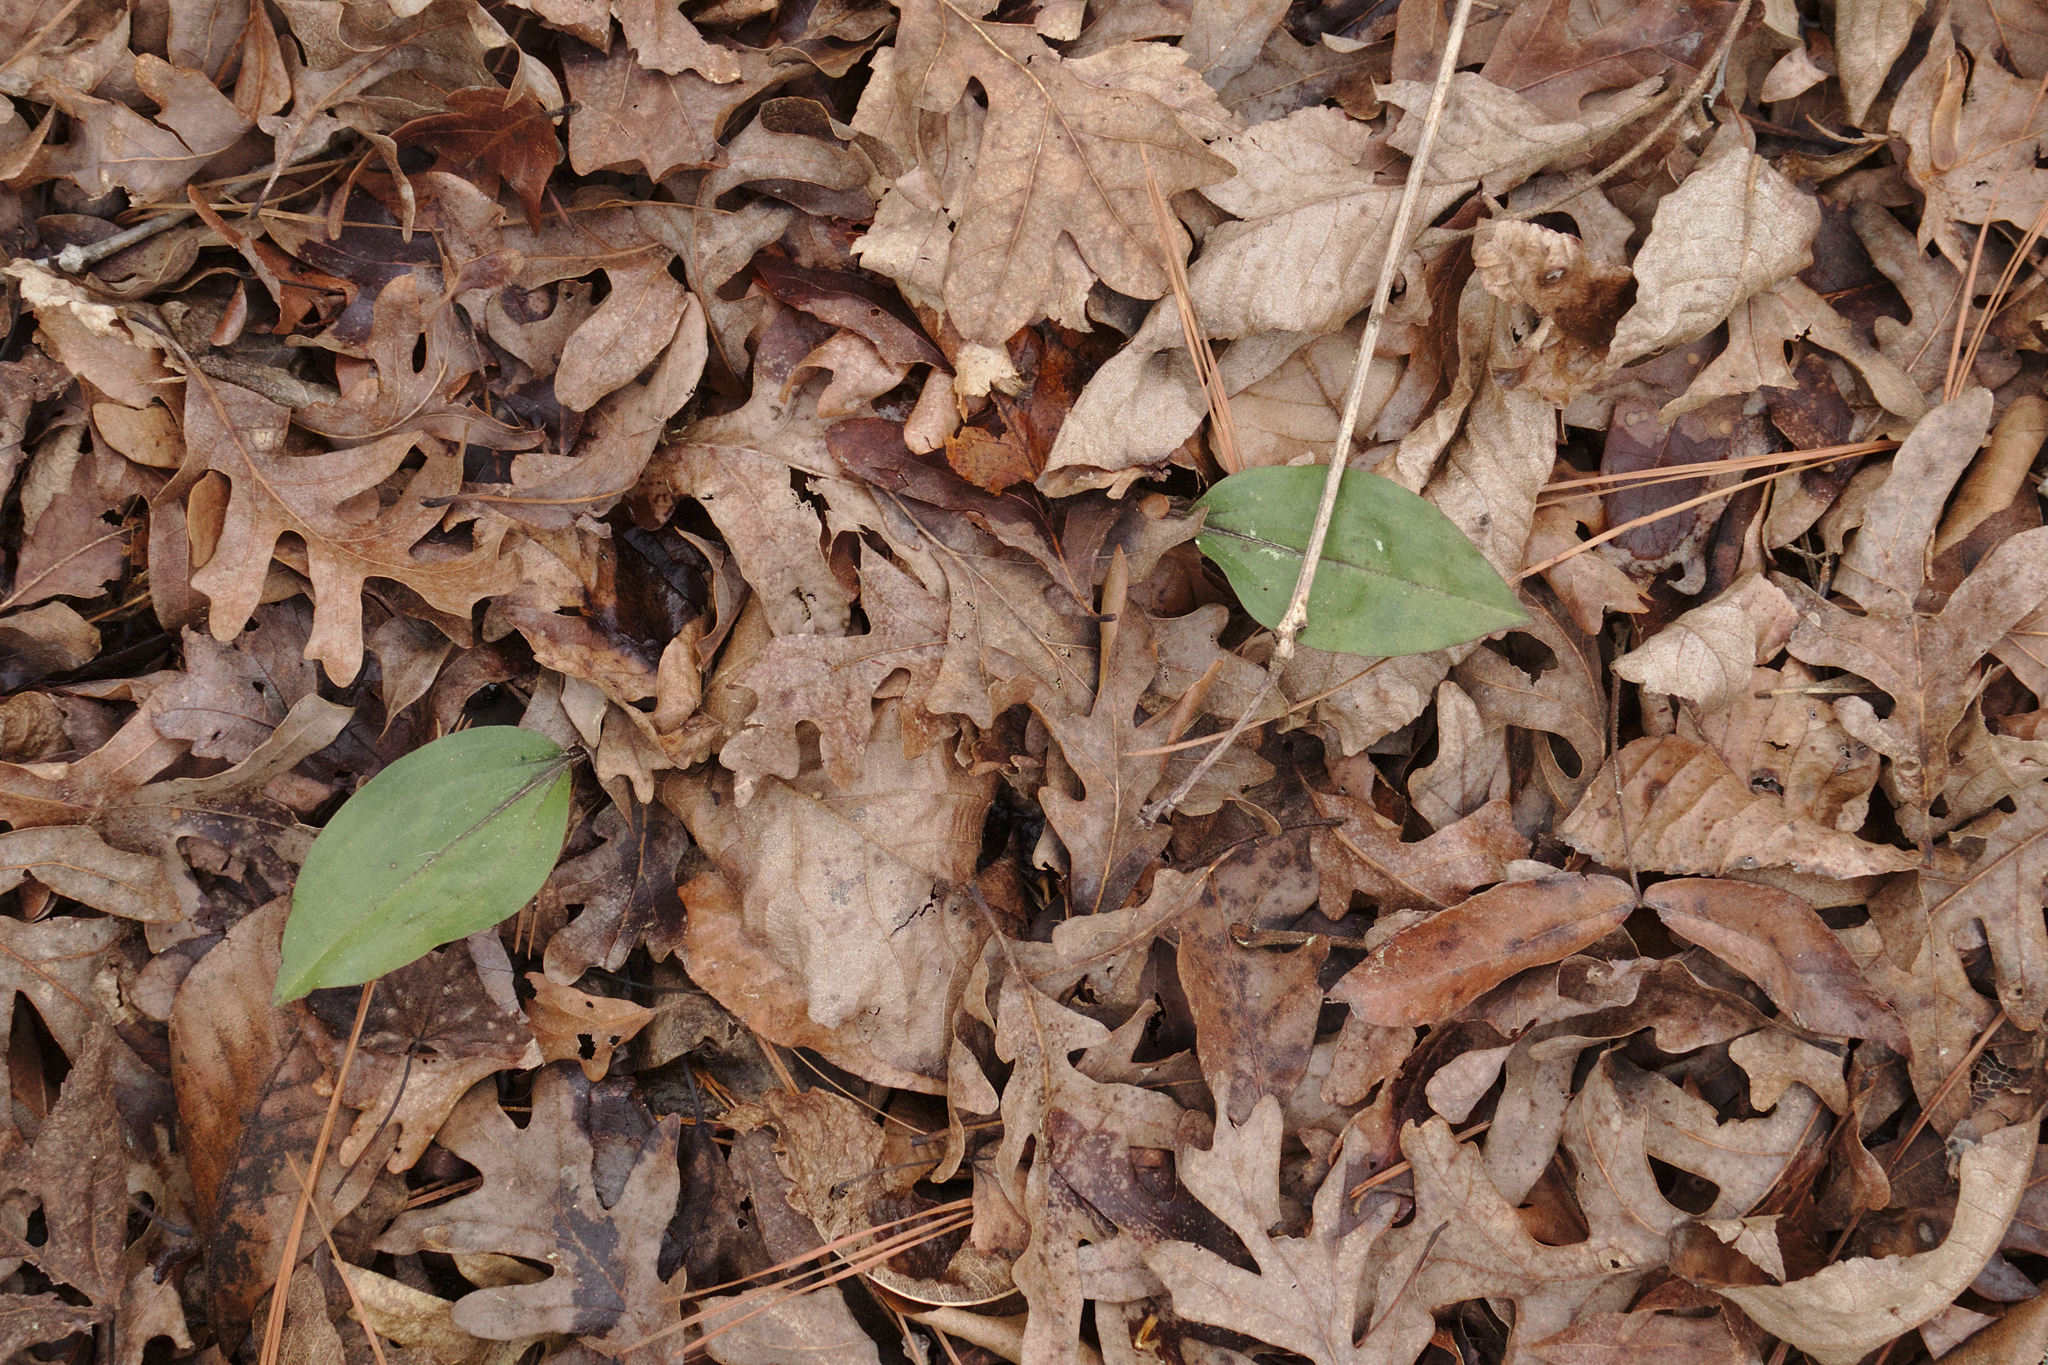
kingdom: Plantae
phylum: Tracheophyta
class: Liliopsida
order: Asparagales
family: Orchidaceae
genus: Tipularia
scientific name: Tipularia discolor
